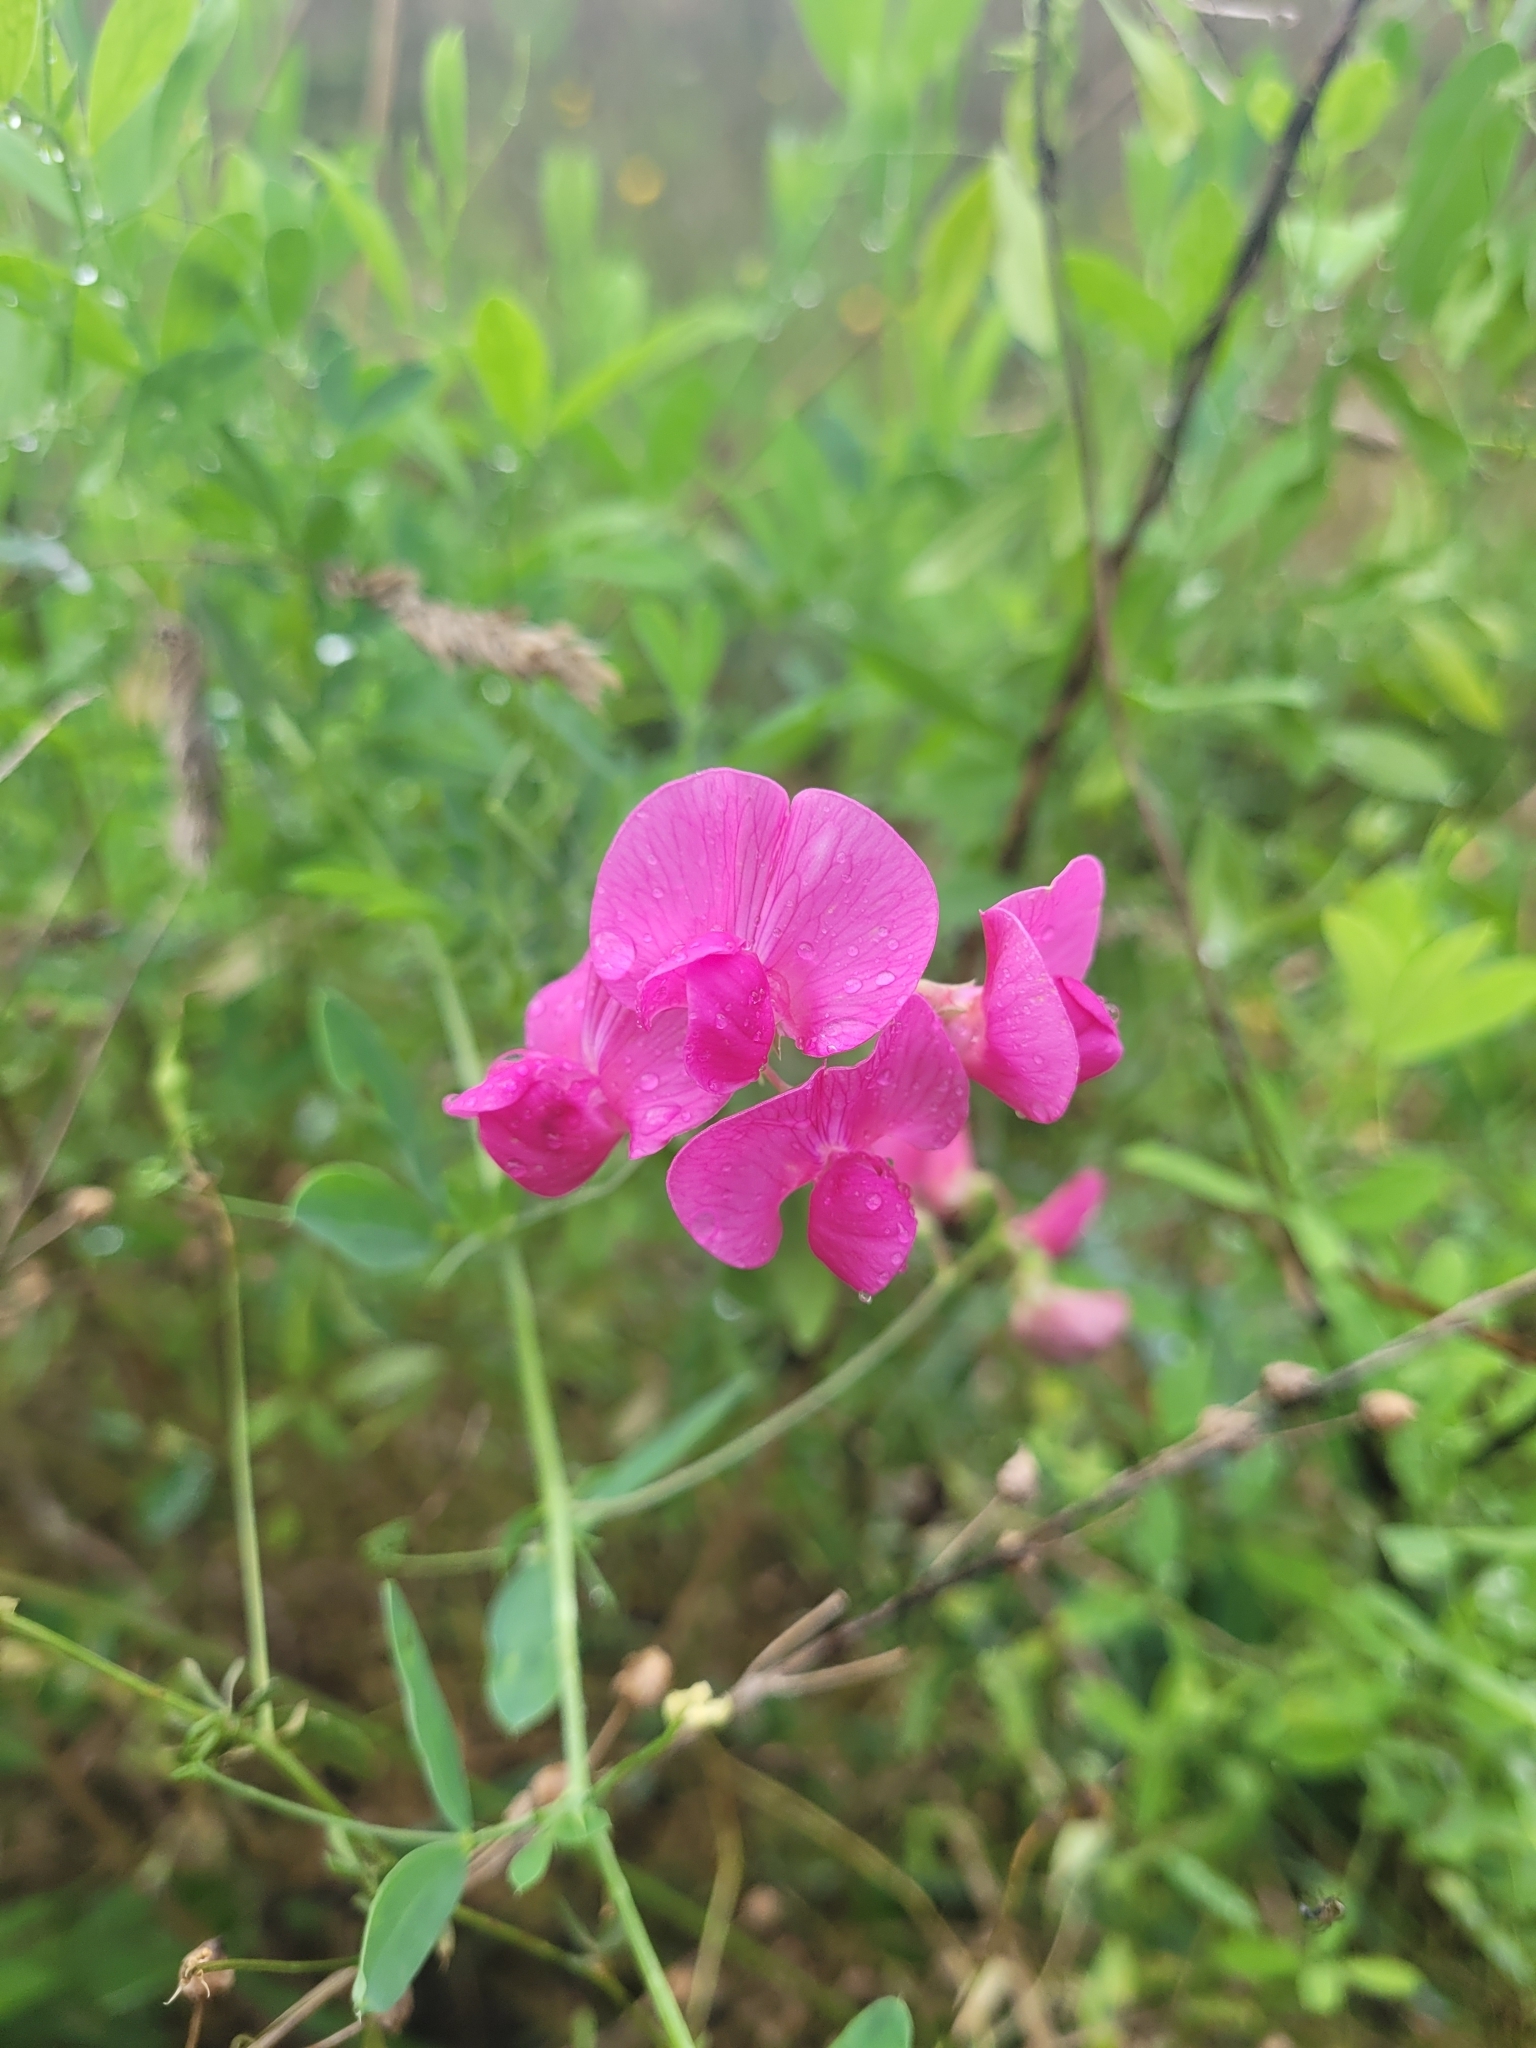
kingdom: Plantae
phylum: Tracheophyta
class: Magnoliopsida
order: Fabales
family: Fabaceae
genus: Lathyrus
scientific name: Lathyrus tuberosus
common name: Tuberous pea
